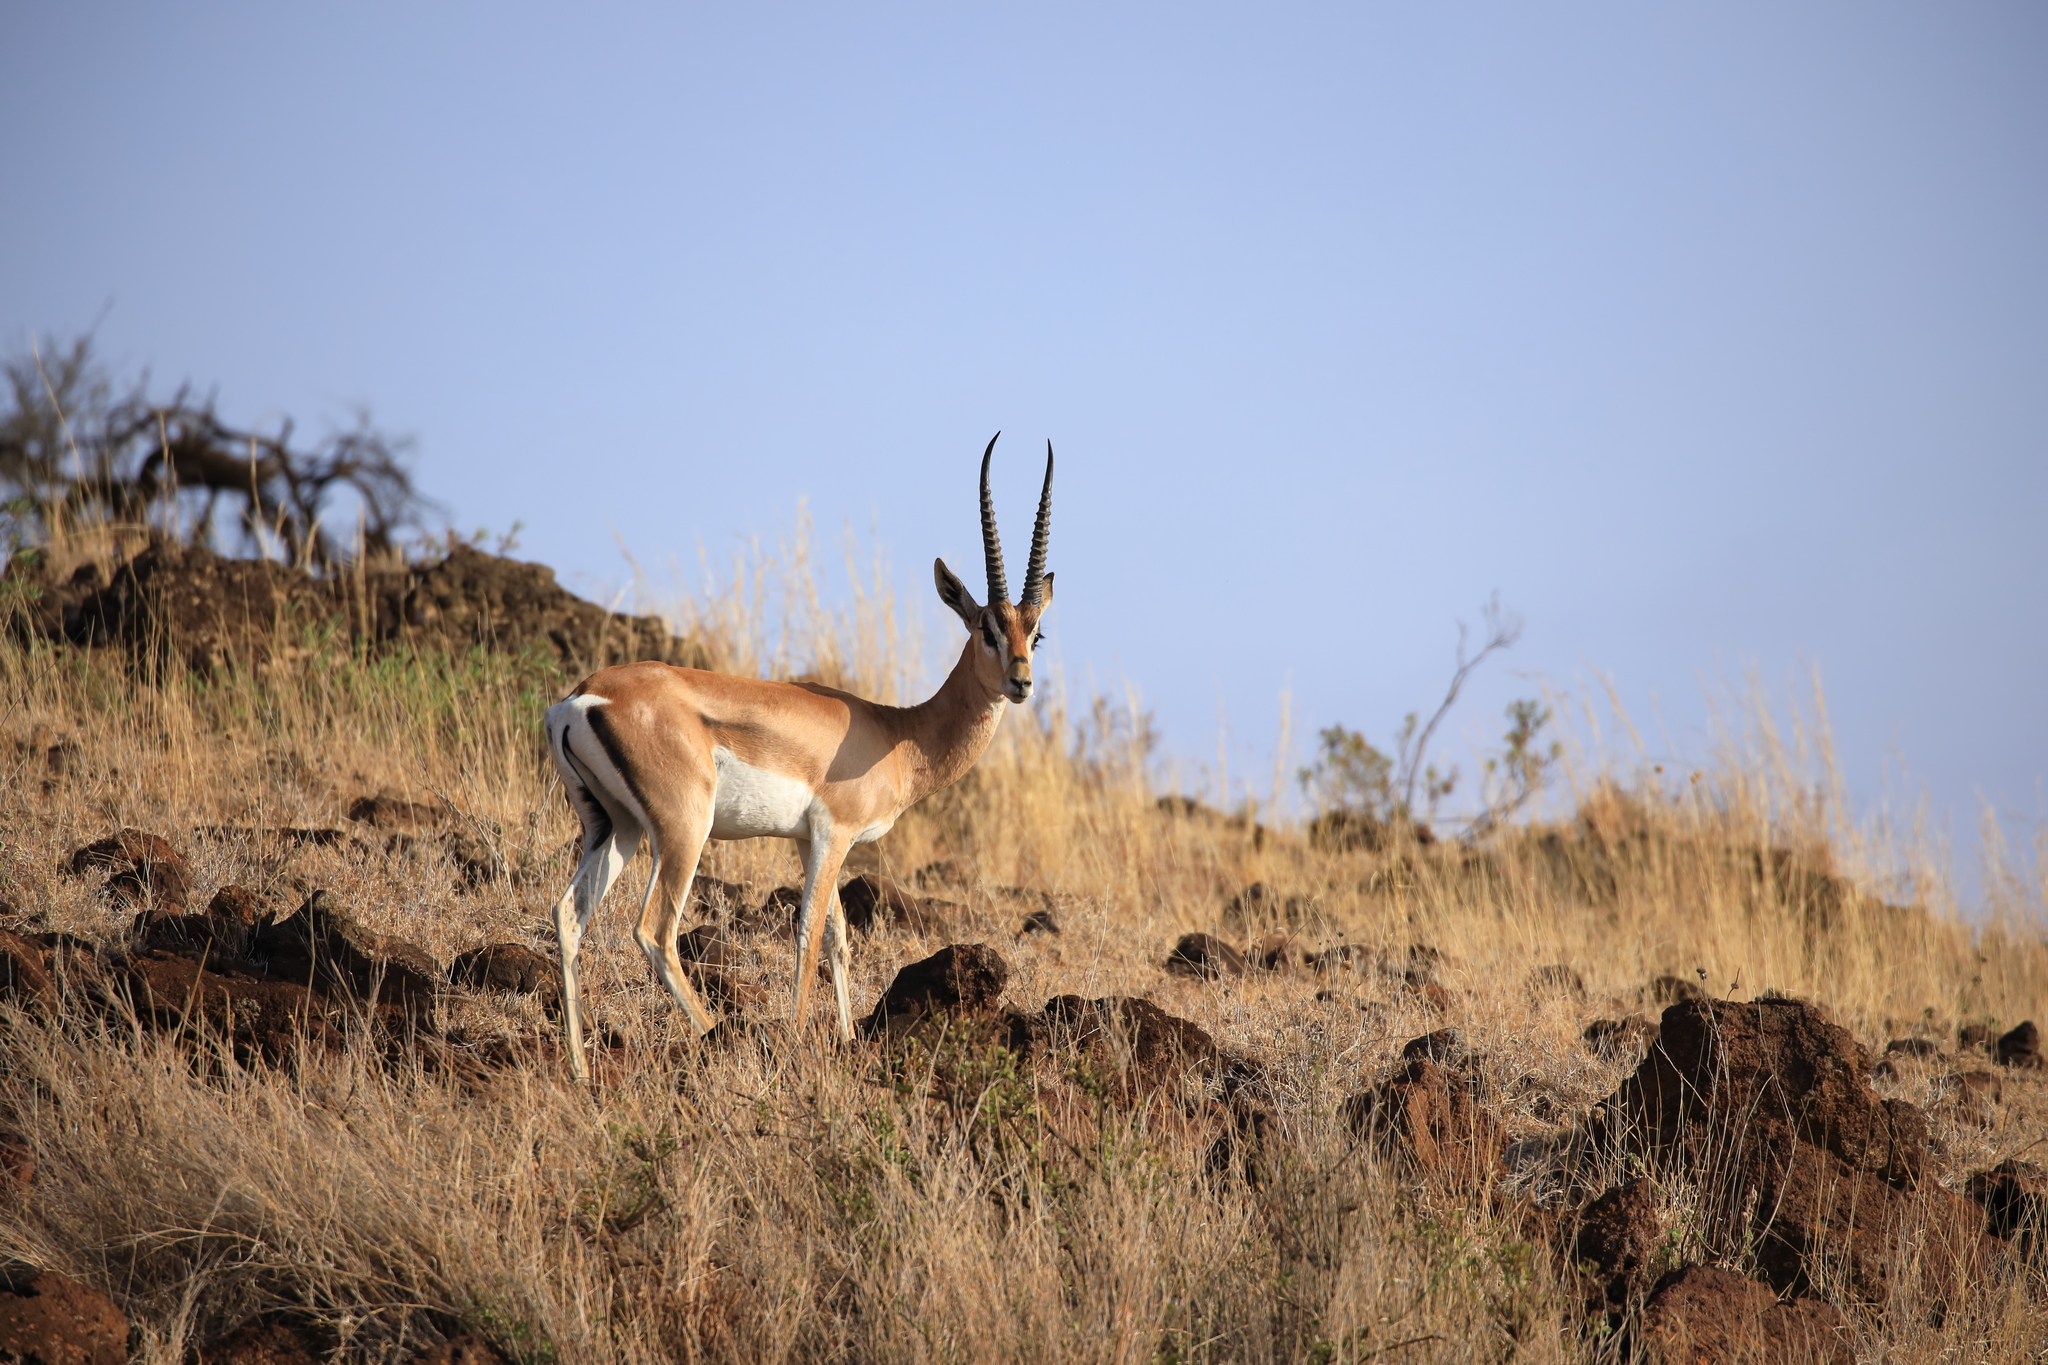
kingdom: Animalia
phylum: Chordata
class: Mammalia
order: Artiodactyla
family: Bovidae
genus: Nanger
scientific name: Nanger granti
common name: Grant's gazelle
